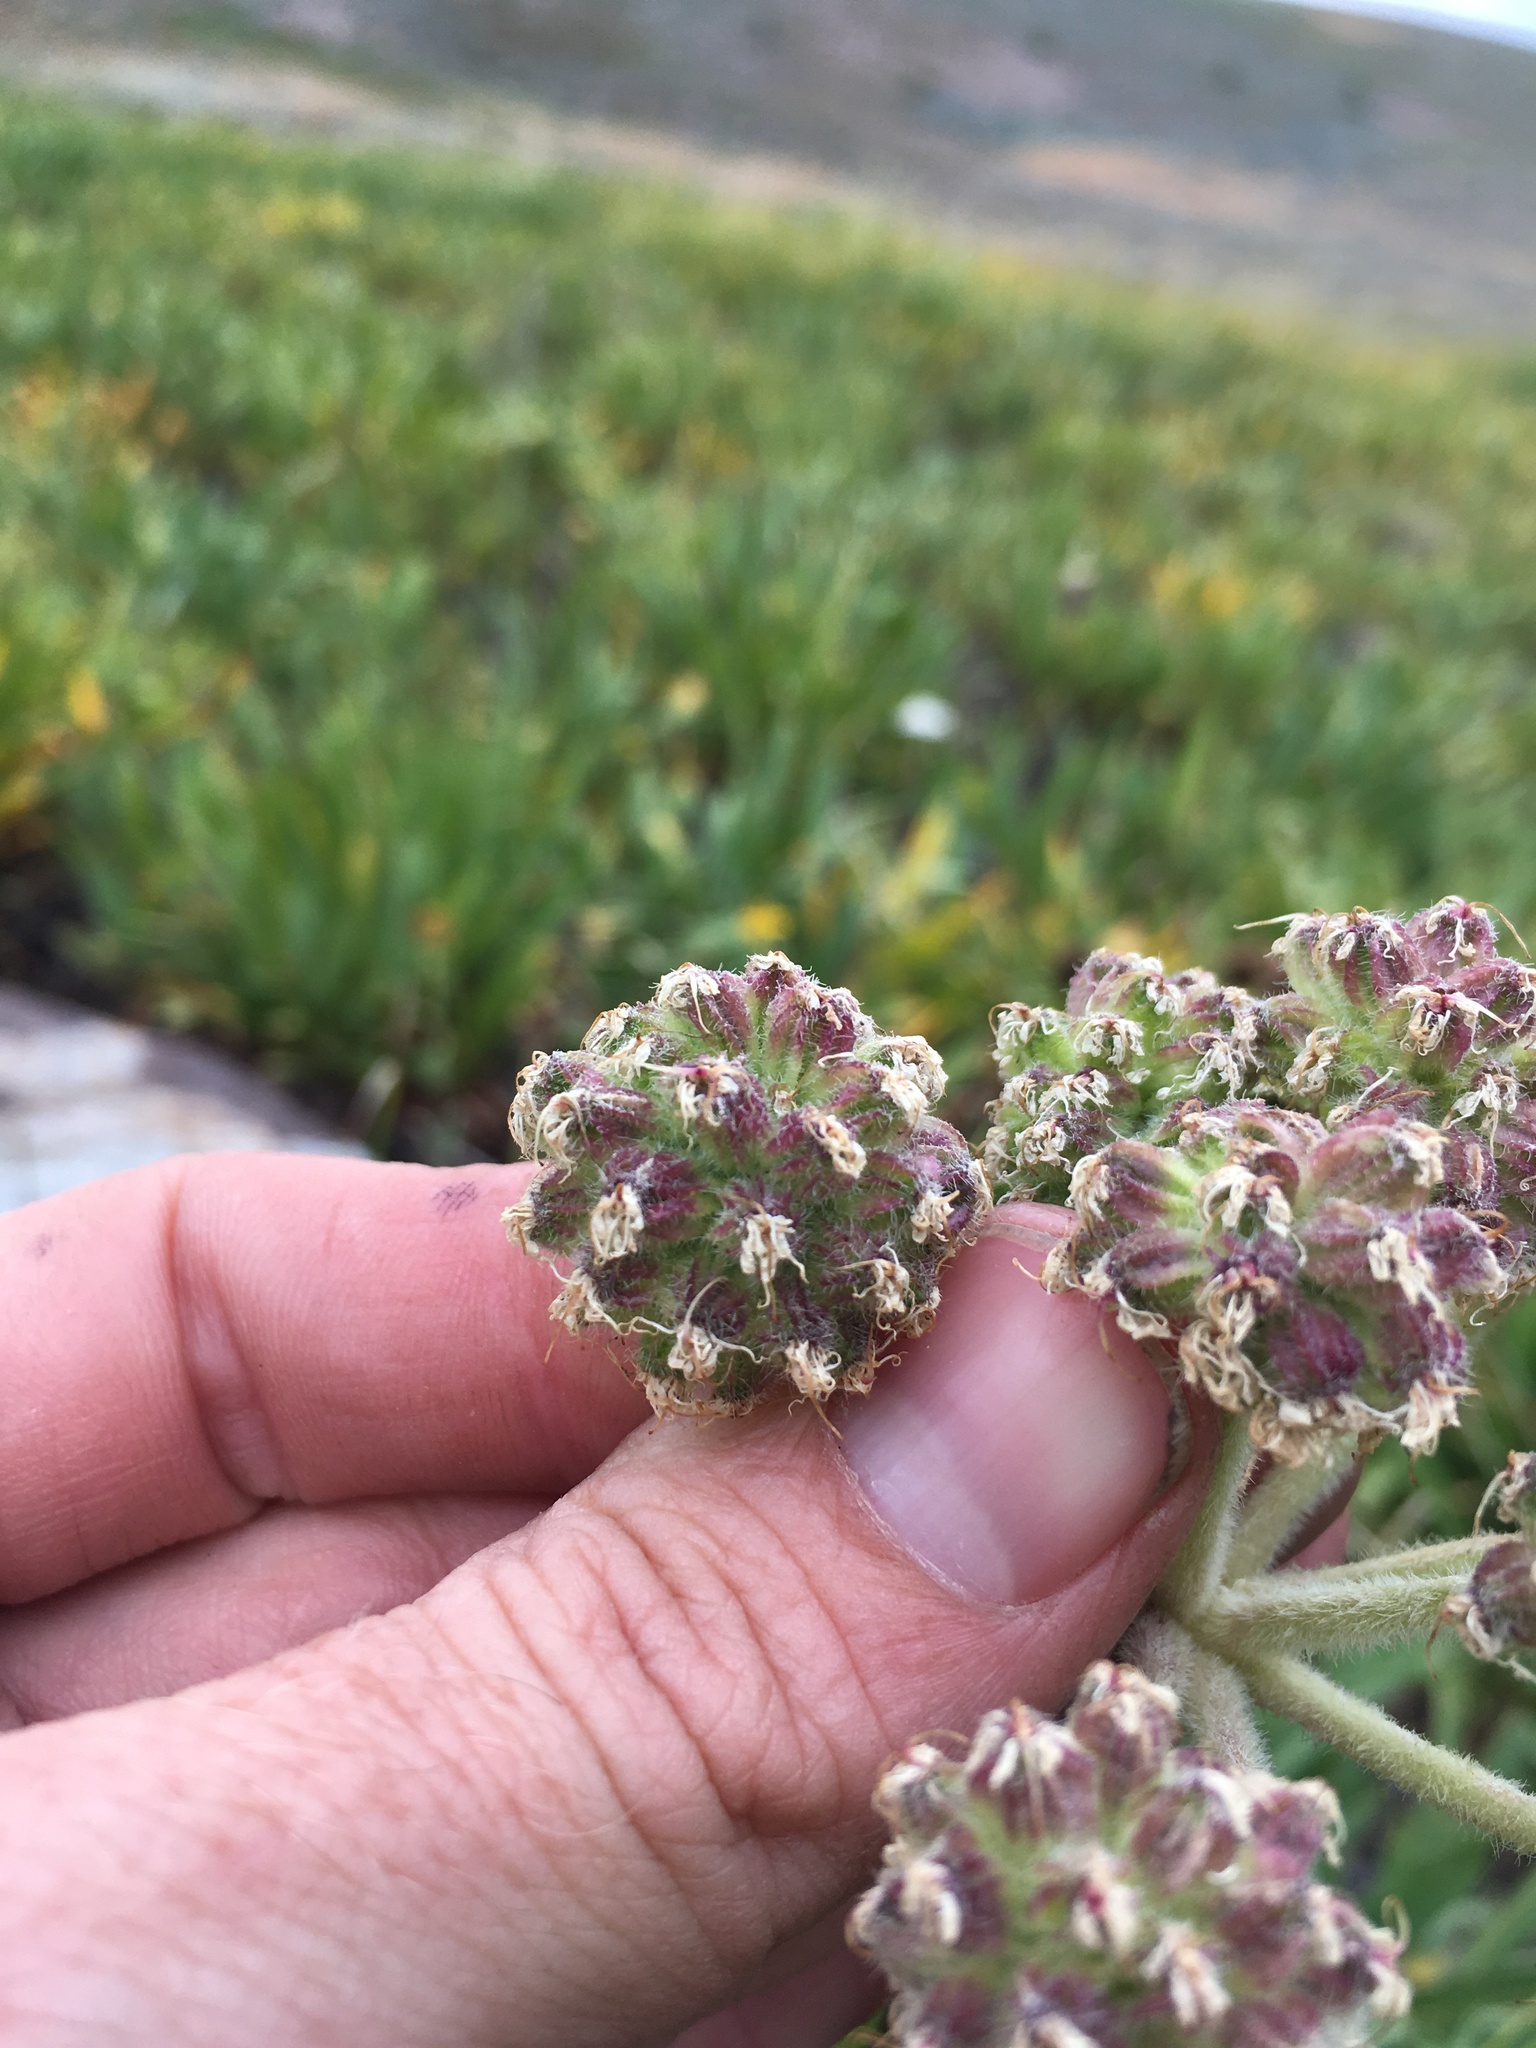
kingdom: Plantae
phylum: Tracheophyta
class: Magnoliopsida
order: Apiales
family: Apiaceae
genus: Angelica
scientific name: Angelica capitellata
